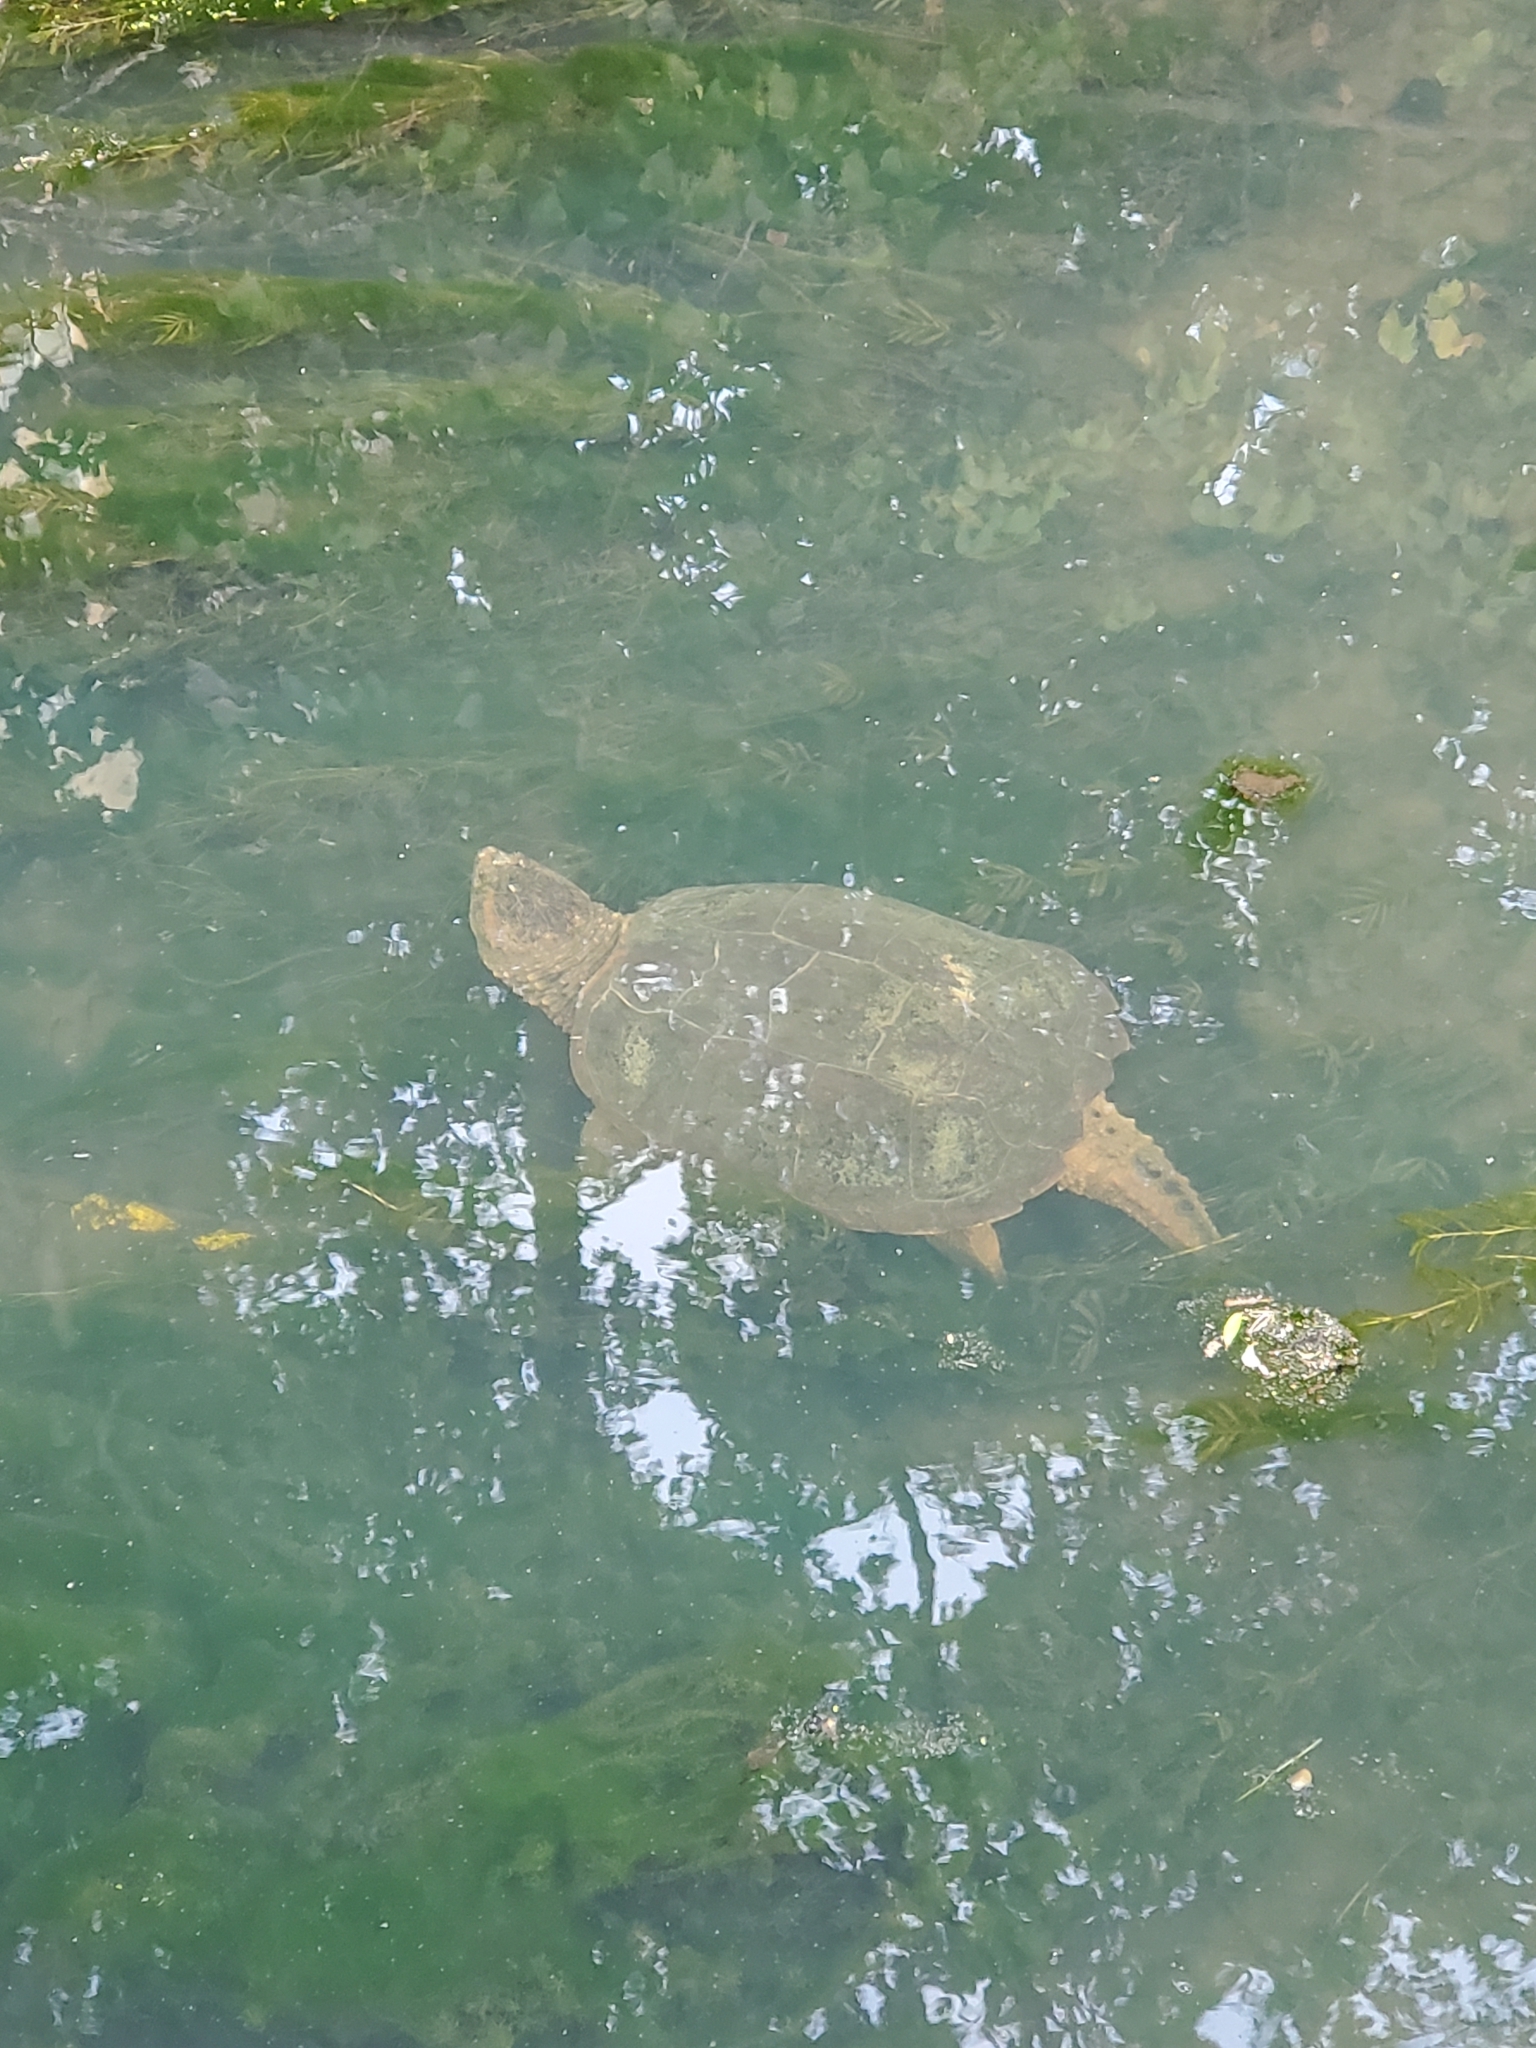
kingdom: Animalia
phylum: Chordata
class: Testudines
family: Chelydridae
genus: Chelydra
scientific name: Chelydra serpentina
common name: Common snapping turtle
